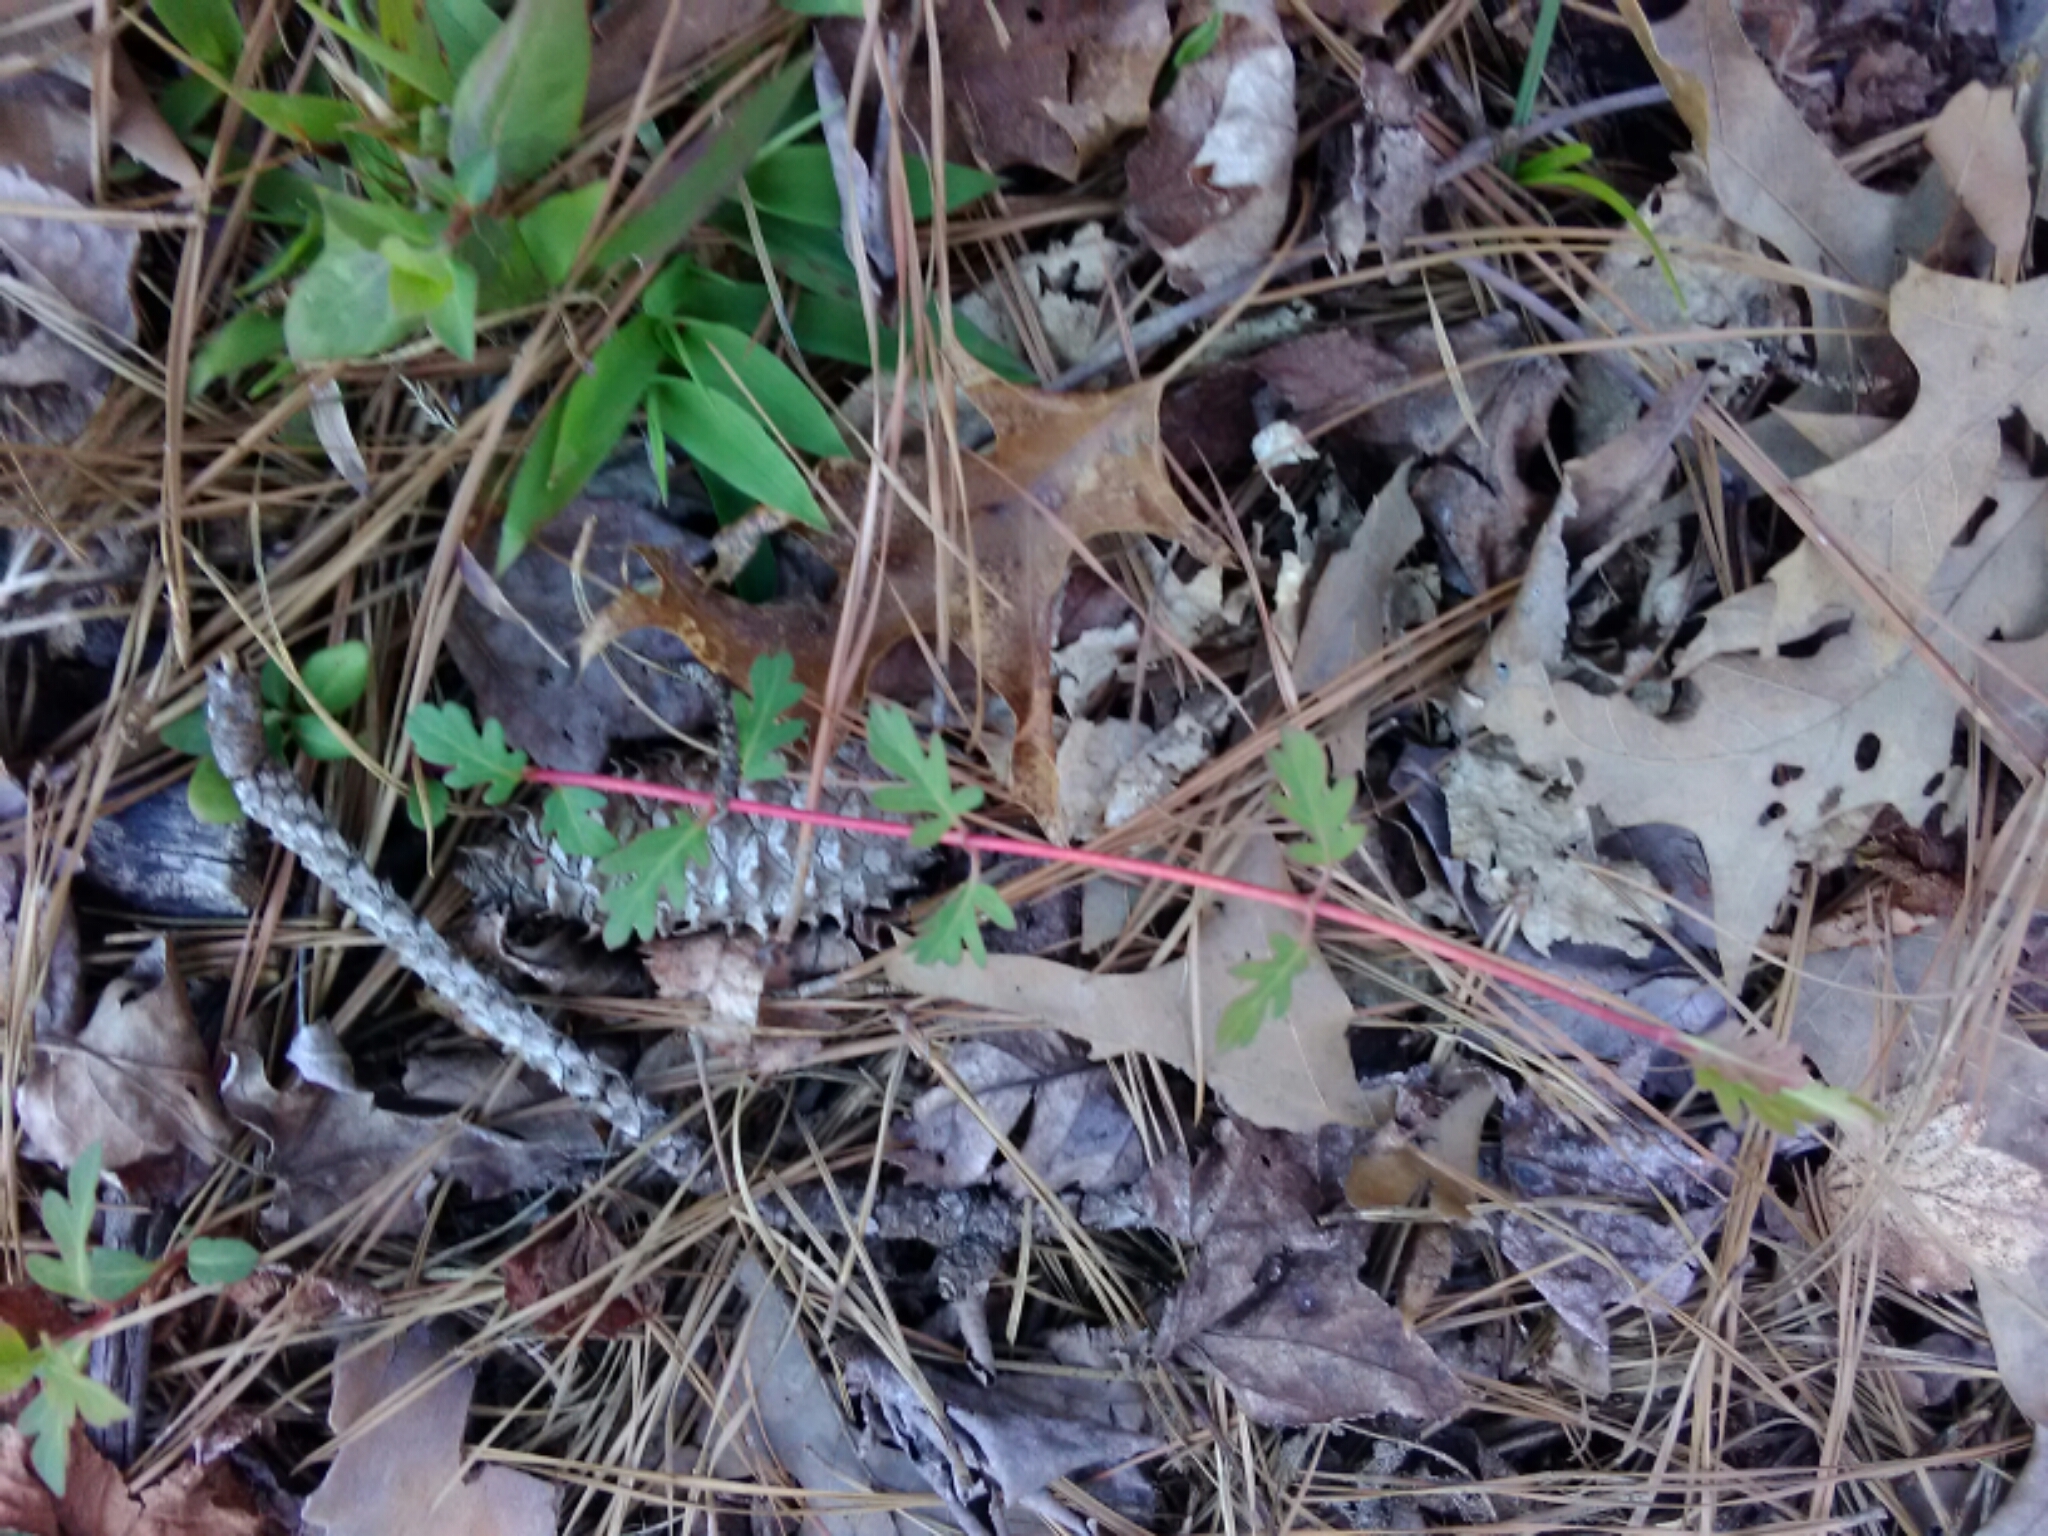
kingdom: Plantae
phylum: Tracheophyta
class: Magnoliopsida
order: Dipsacales
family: Caprifoliaceae
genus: Lonicera
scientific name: Lonicera japonica
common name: Japanese honeysuckle
